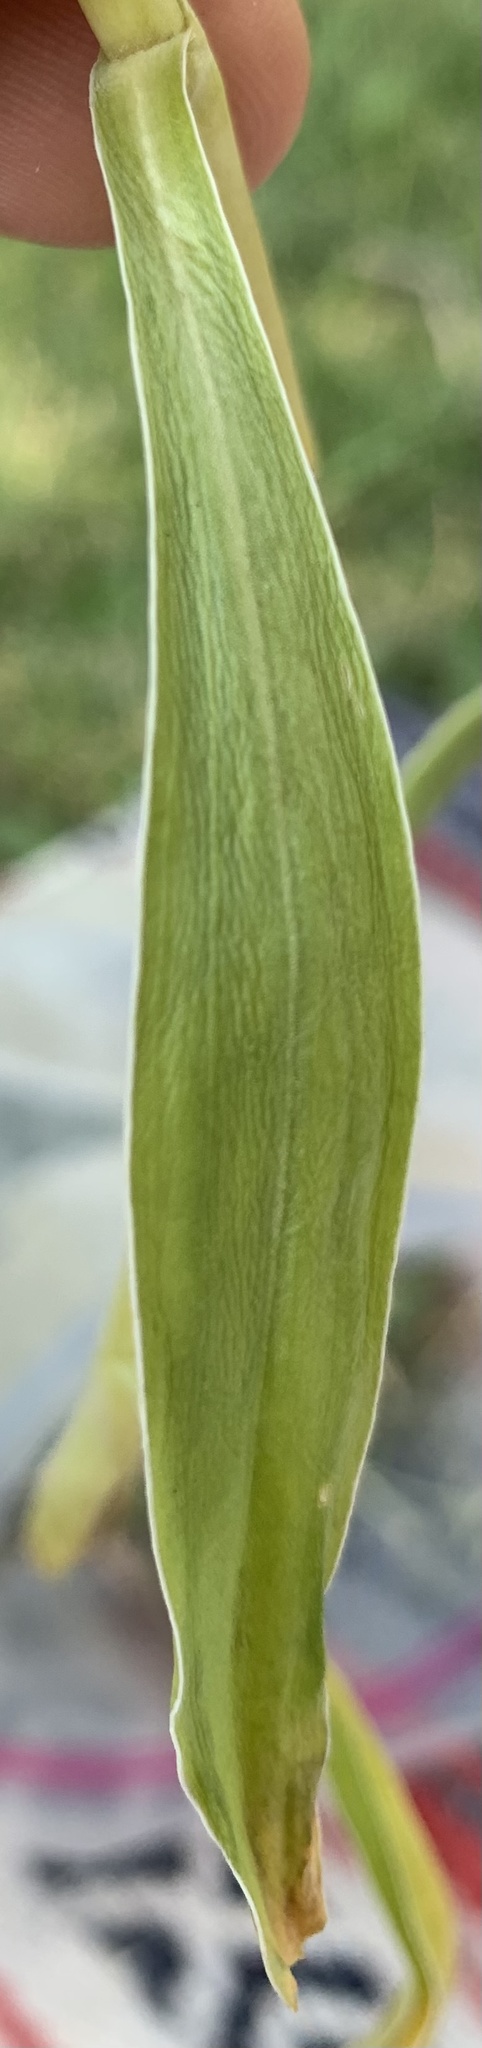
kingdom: Plantae
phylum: Tracheophyta
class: Magnoliopsida
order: Gentianales
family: Gentianaceae
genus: Frasera
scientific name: Frasera montana
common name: White frasera
